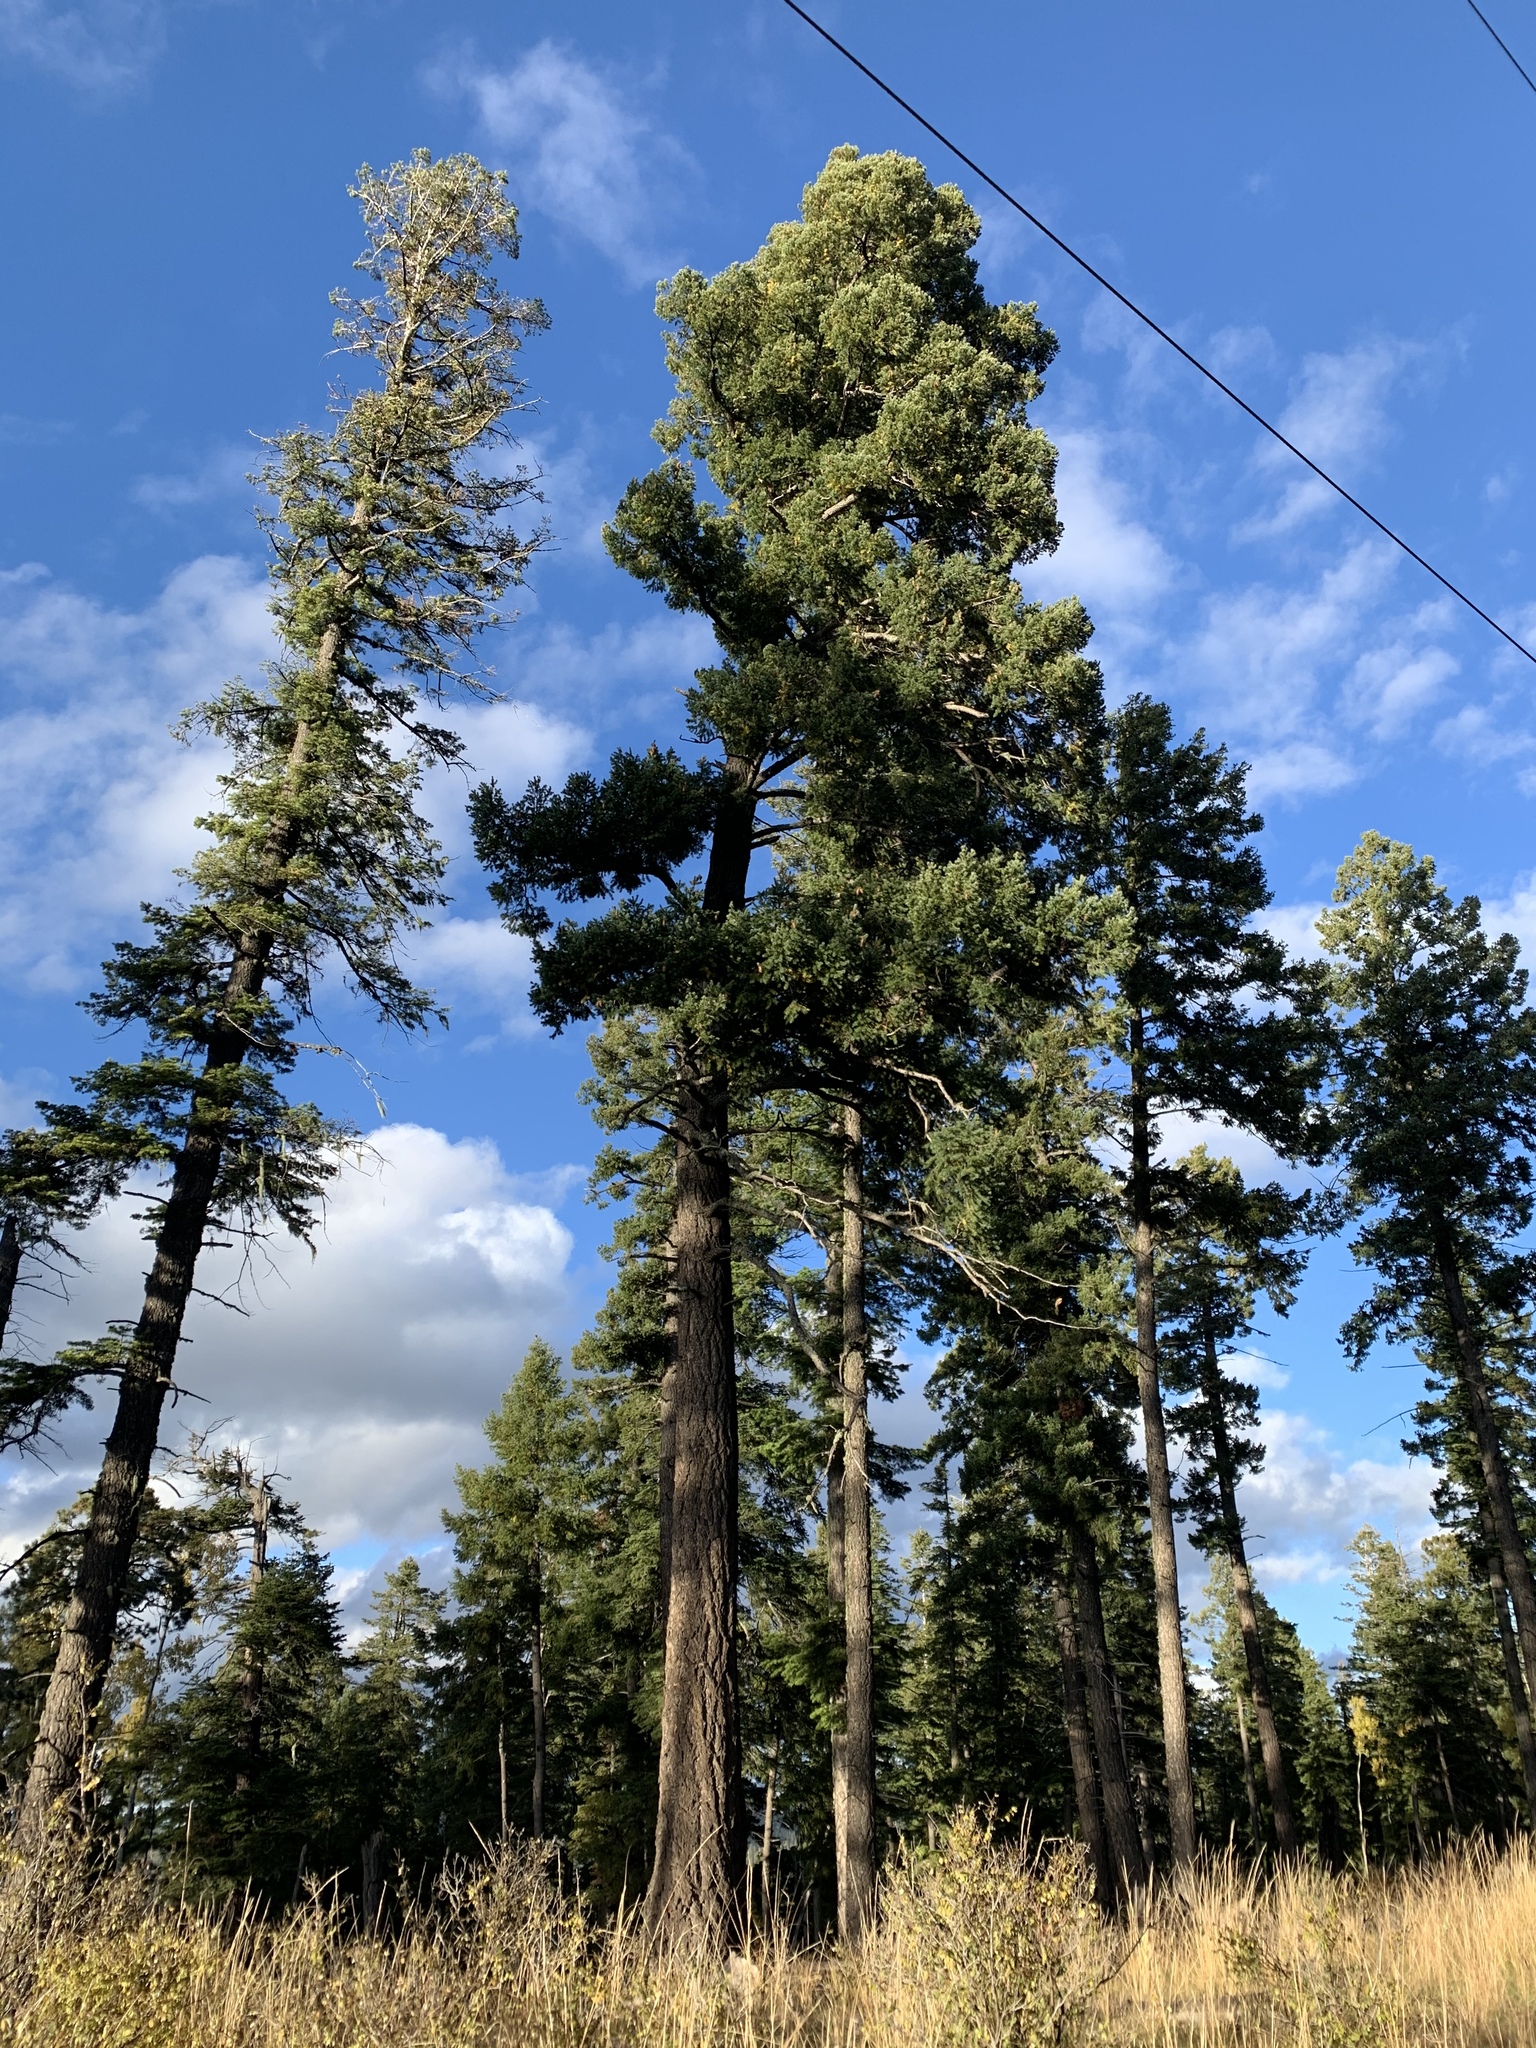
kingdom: Plantae
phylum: Tracheophyta
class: Pinopsida
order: Pinales
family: Pinaceae
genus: Pseudotsuga
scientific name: Pseudotsuga menziesii
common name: Douglas fir
